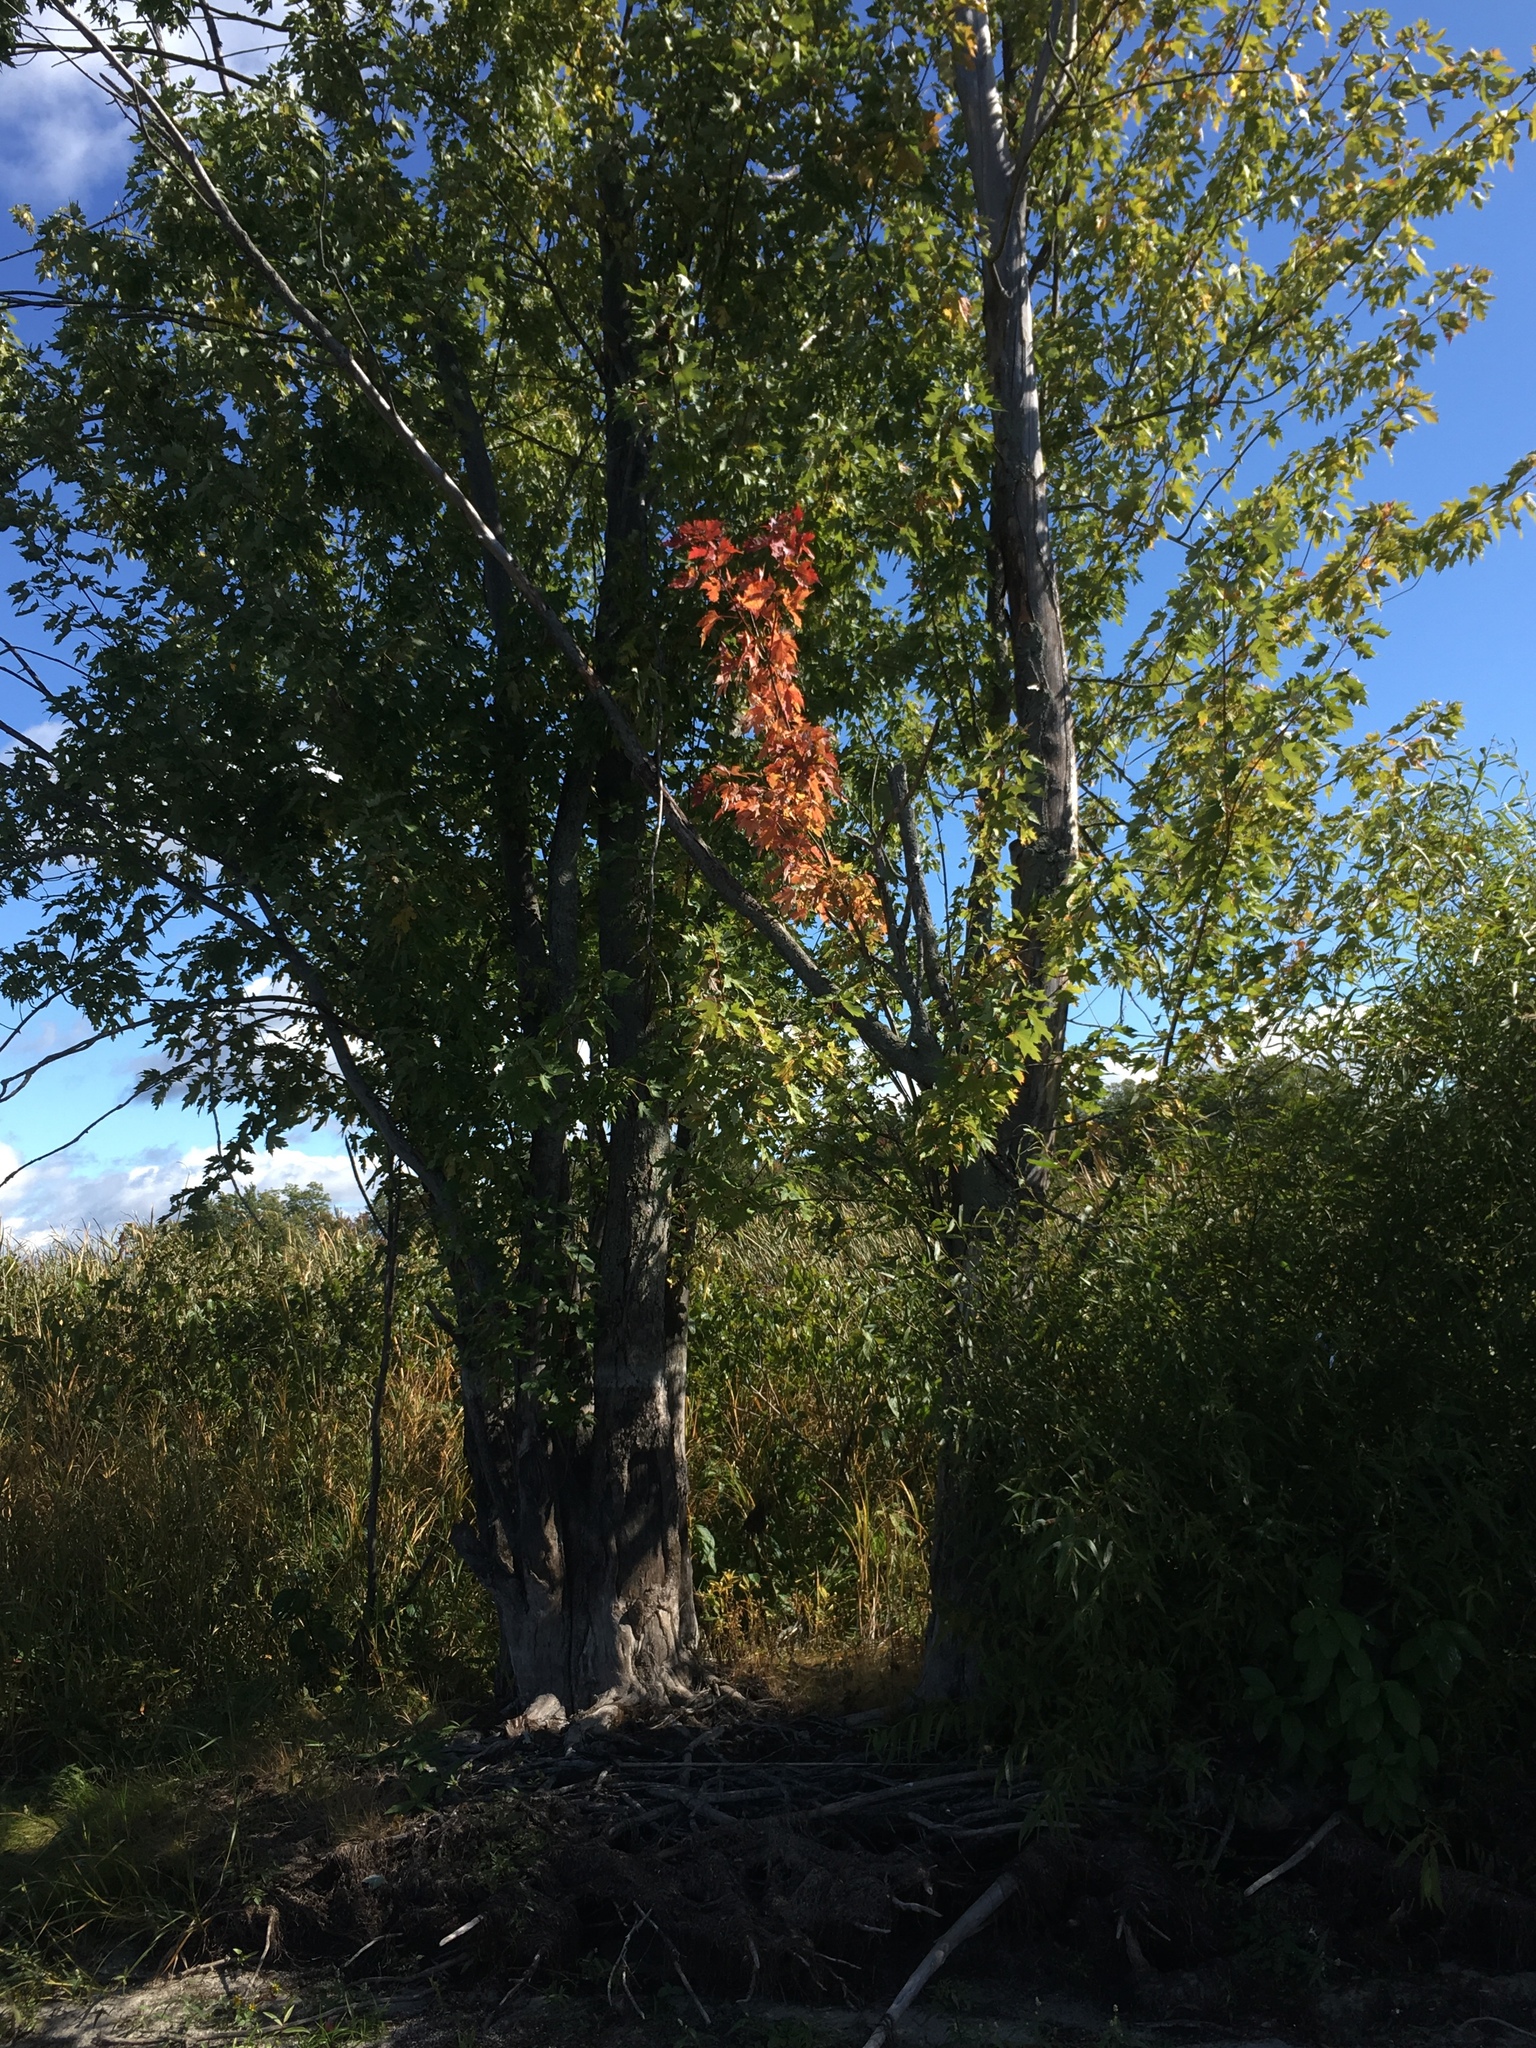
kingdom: Plantae
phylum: Tracheophyta
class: Magnoliopsida
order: Sapindales
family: Sapindaceae
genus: Acer
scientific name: Acer saccharinum
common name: Silver maple
